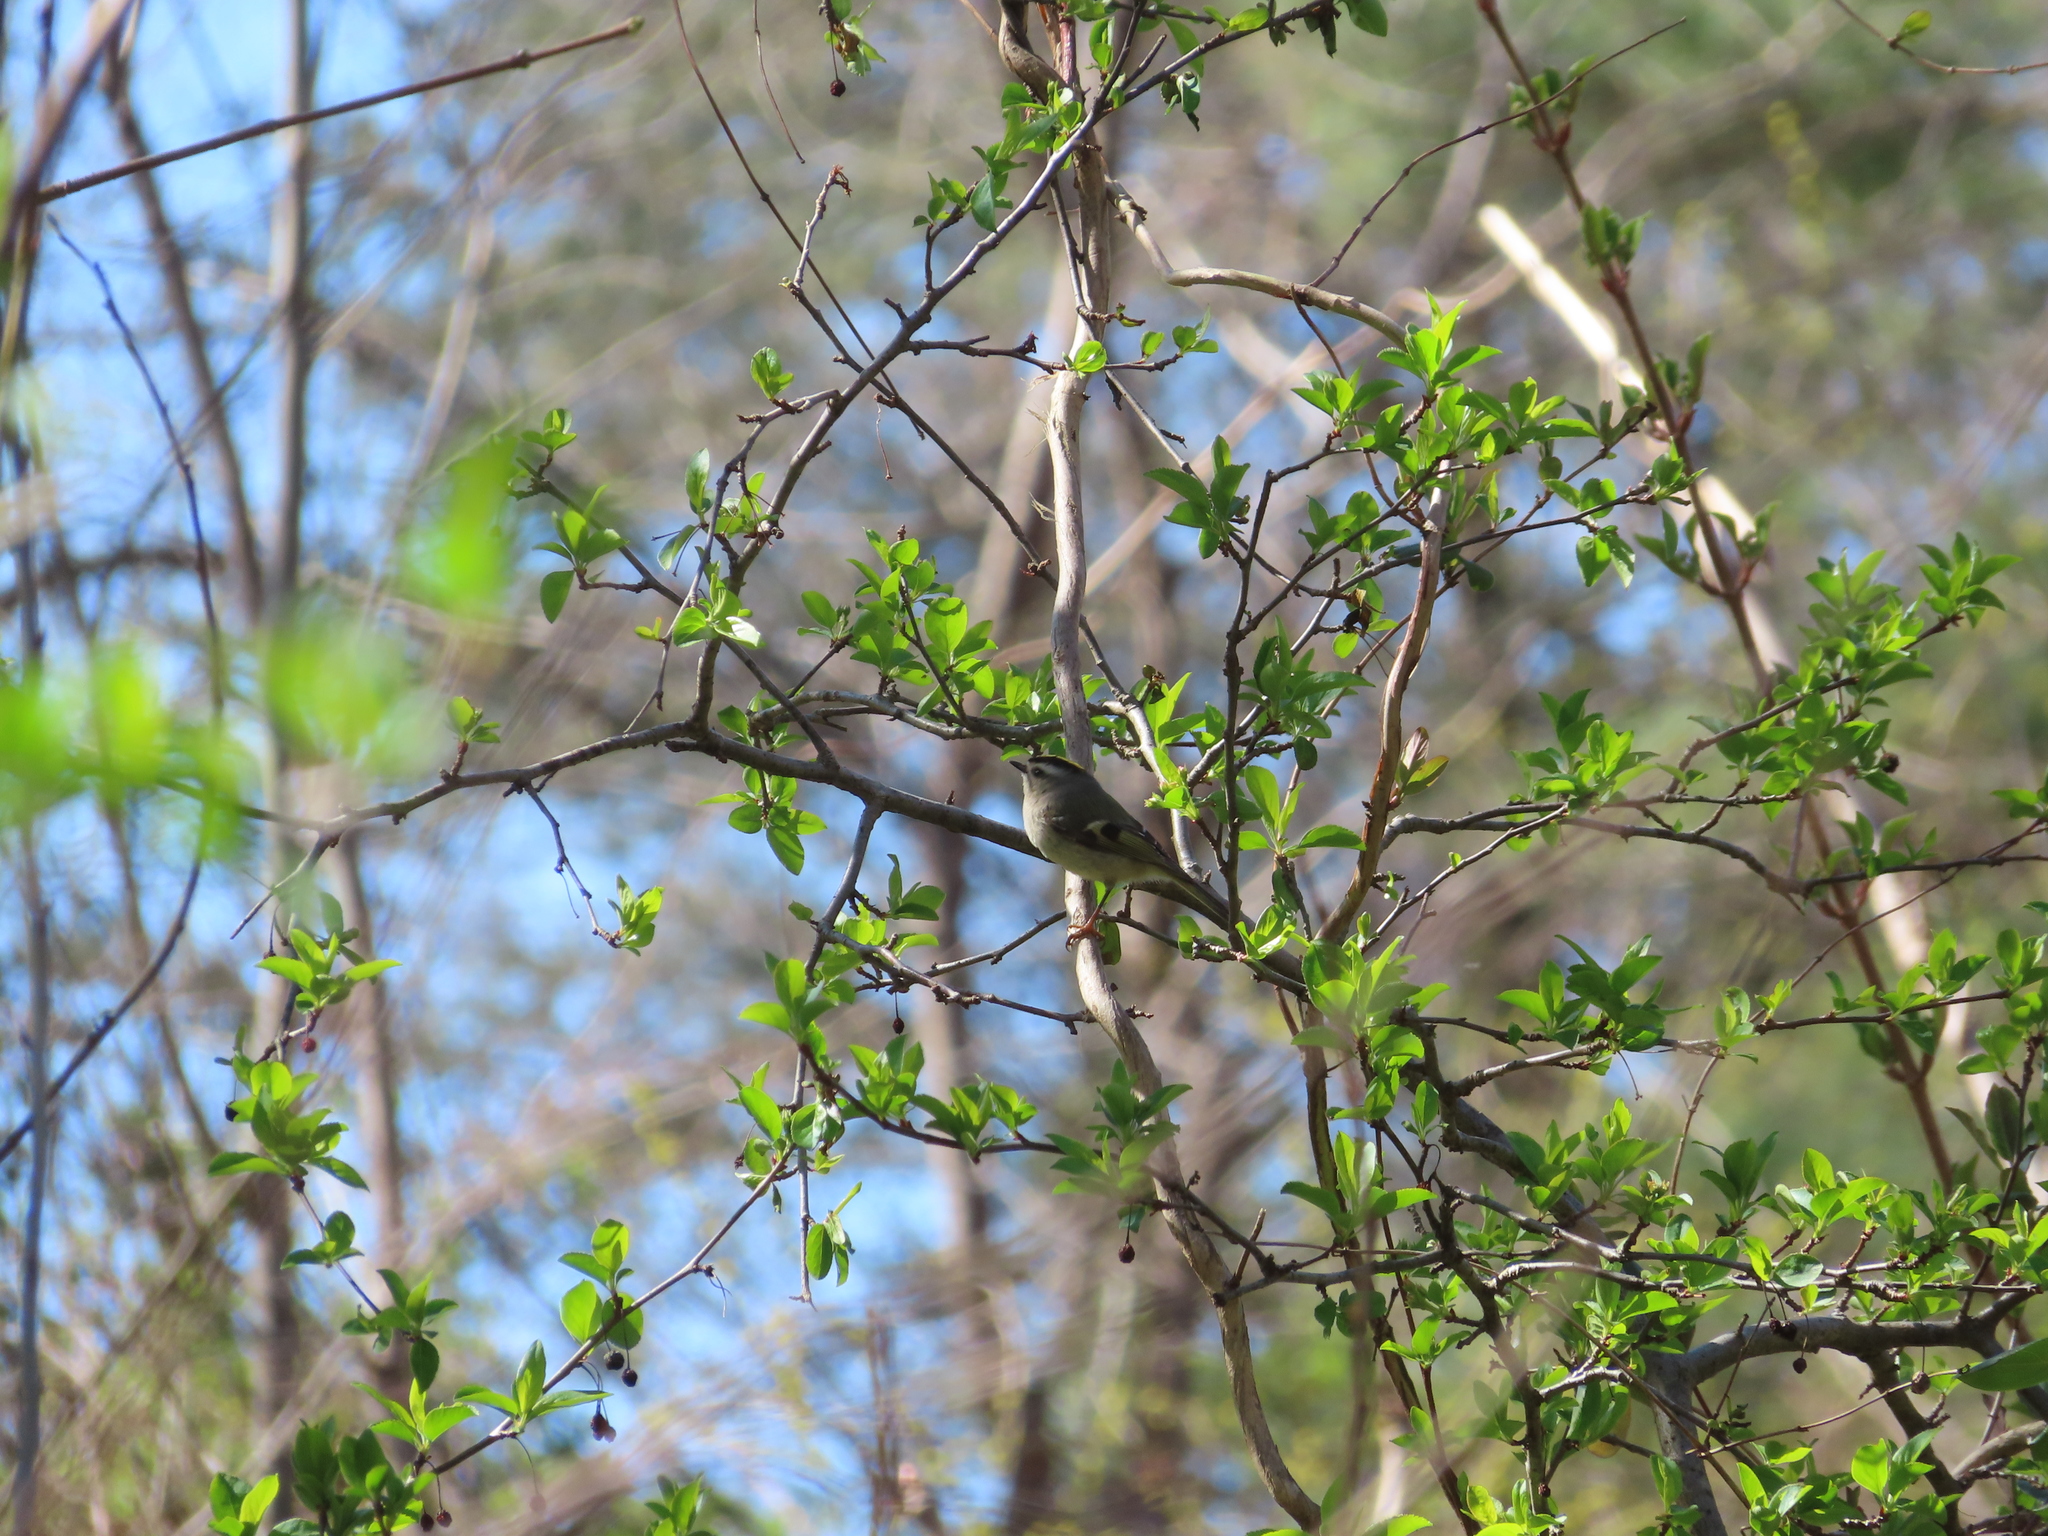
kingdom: Animalia
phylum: Chordata
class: Aves
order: Passeriformes
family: Regulidae
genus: Regulus
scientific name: Regulus satrapa
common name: Golden-crowned kinglet
